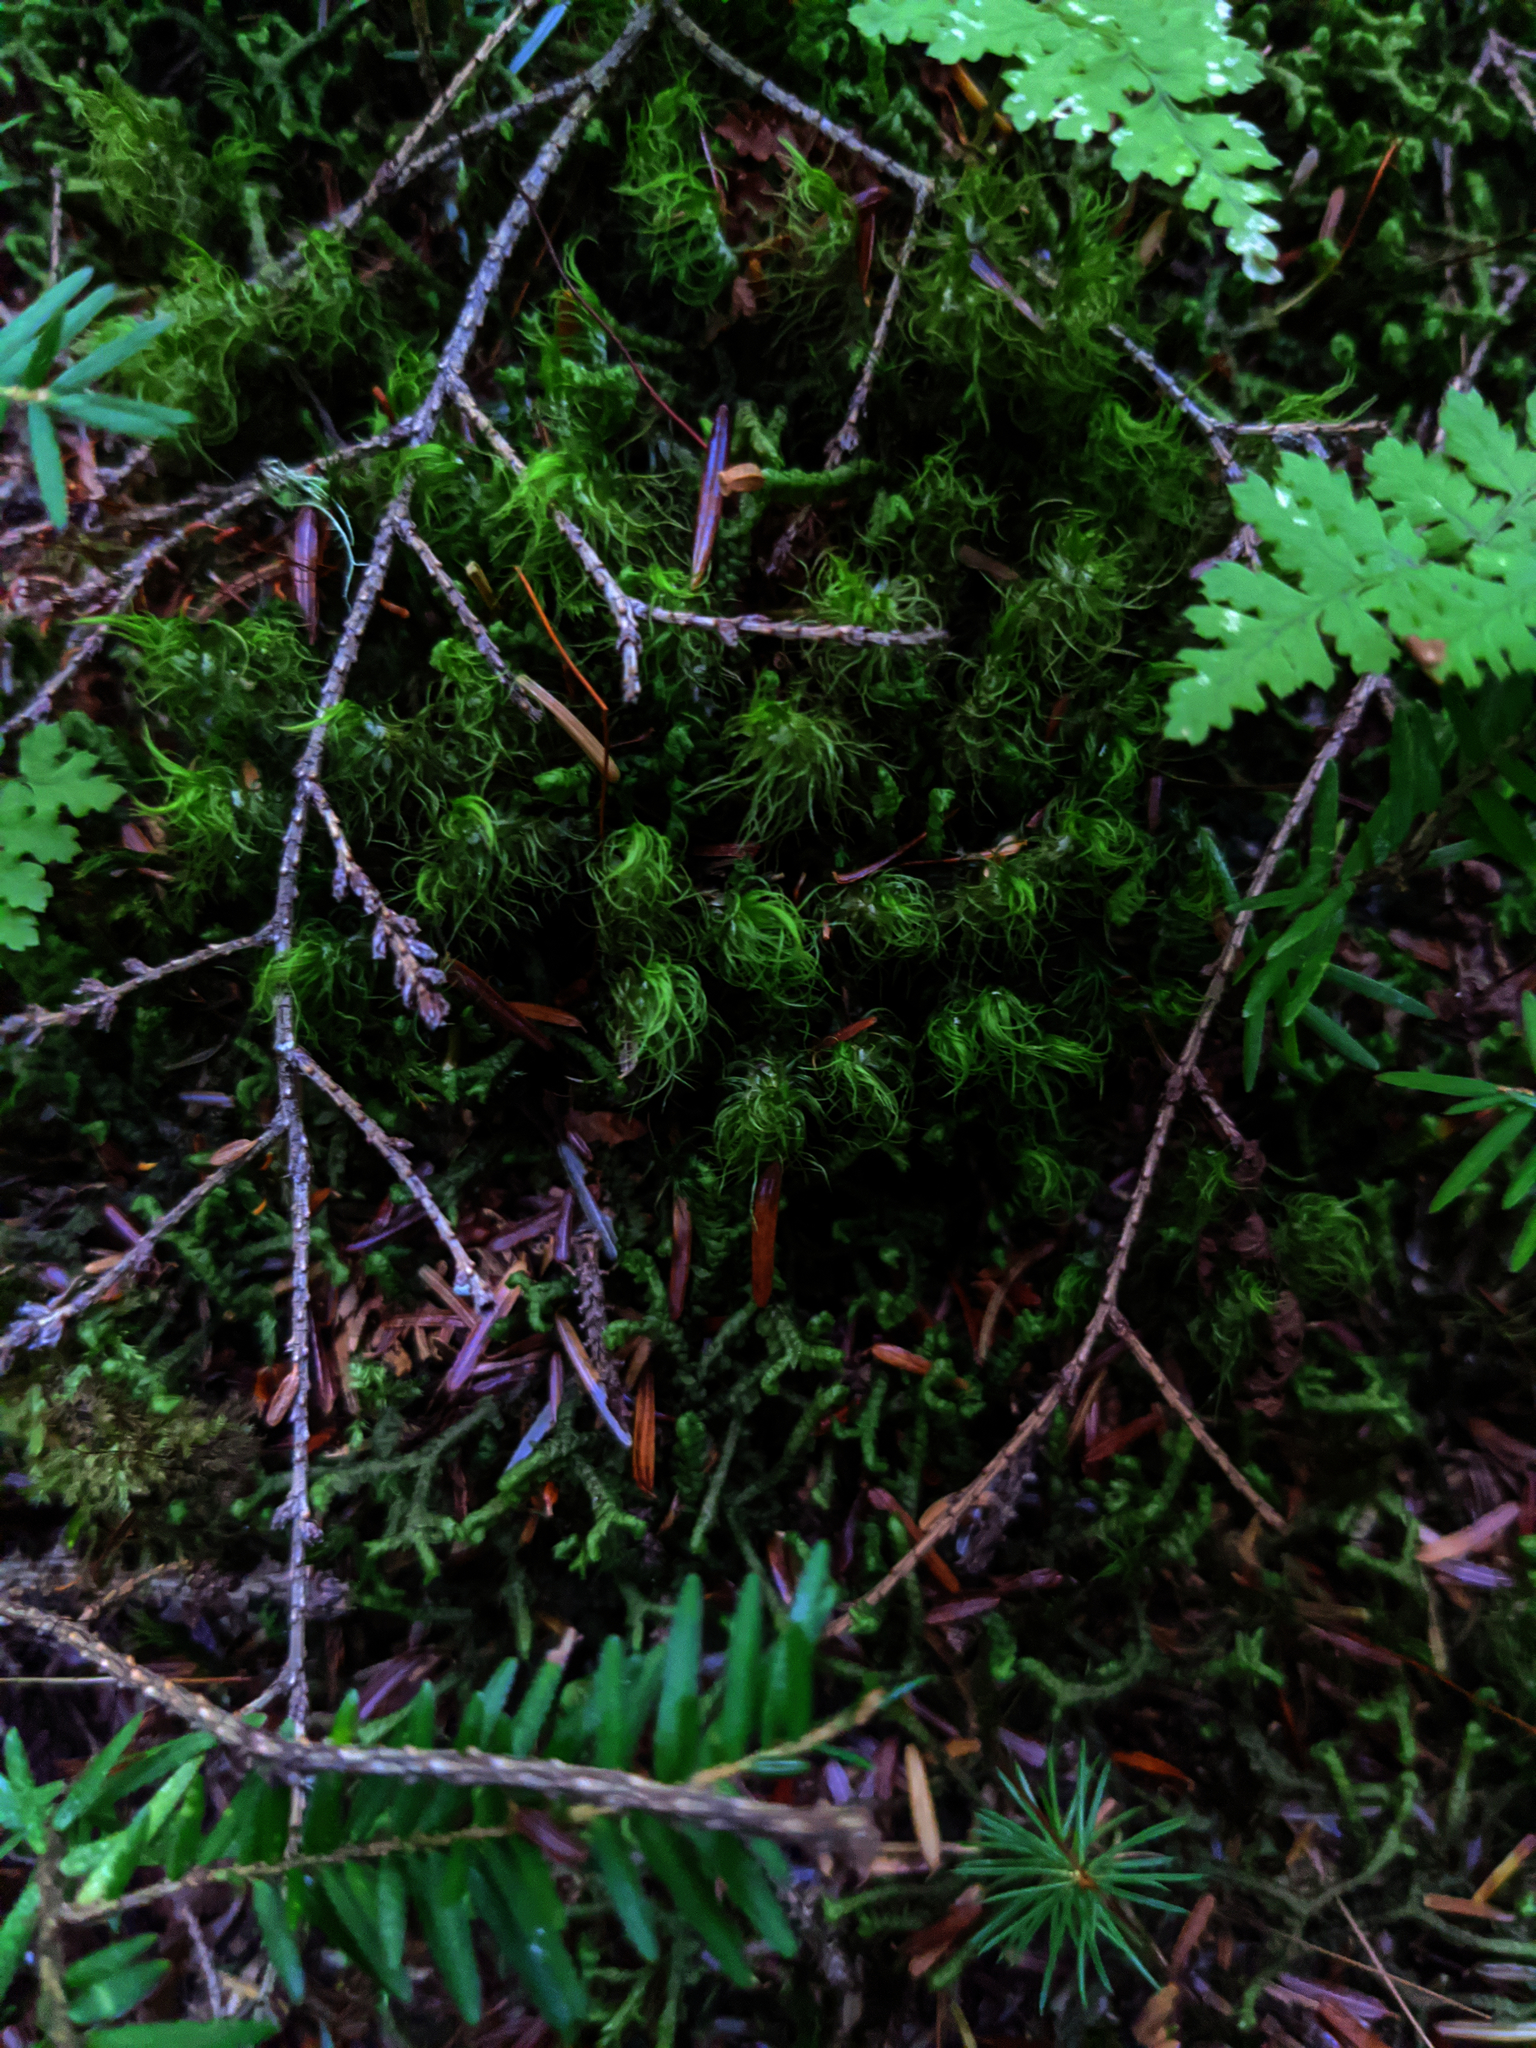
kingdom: Plantae
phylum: Bryophyta
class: Bryopsida
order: Bartramiales
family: Bartramiaceae
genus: Bartramia
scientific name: Bartramia ithyphylla
